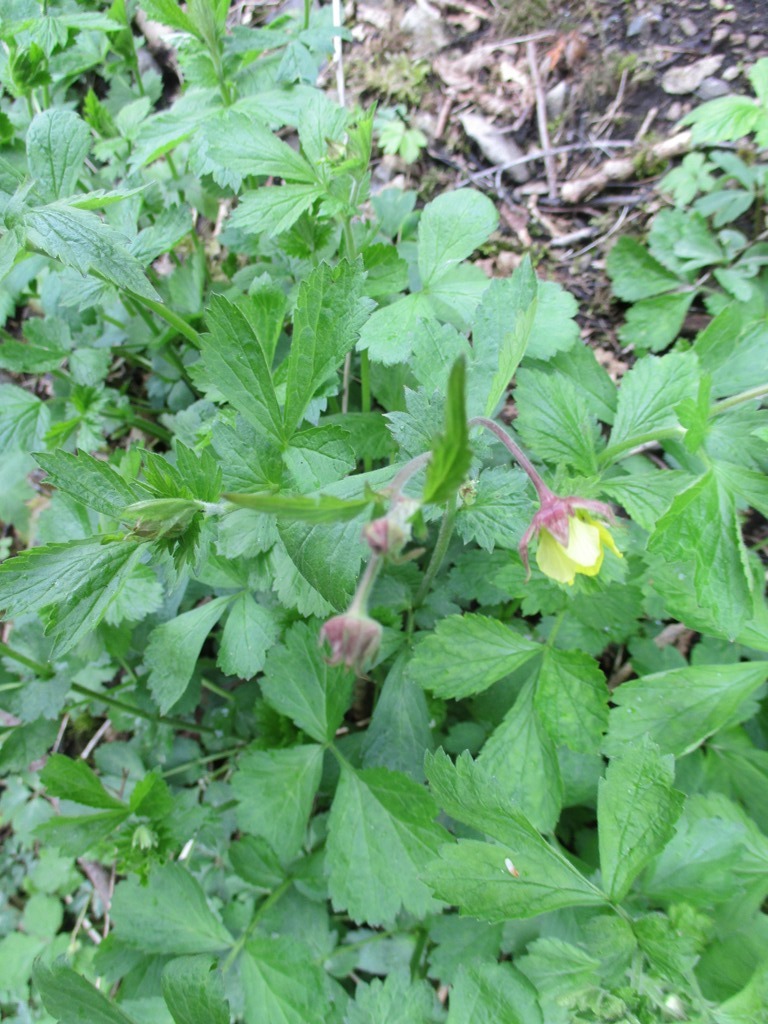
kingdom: Plantae
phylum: Tracheophyta
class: Magnoliopsida
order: Rosales
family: Rosaceae
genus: Geum
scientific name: Geum intermedium
